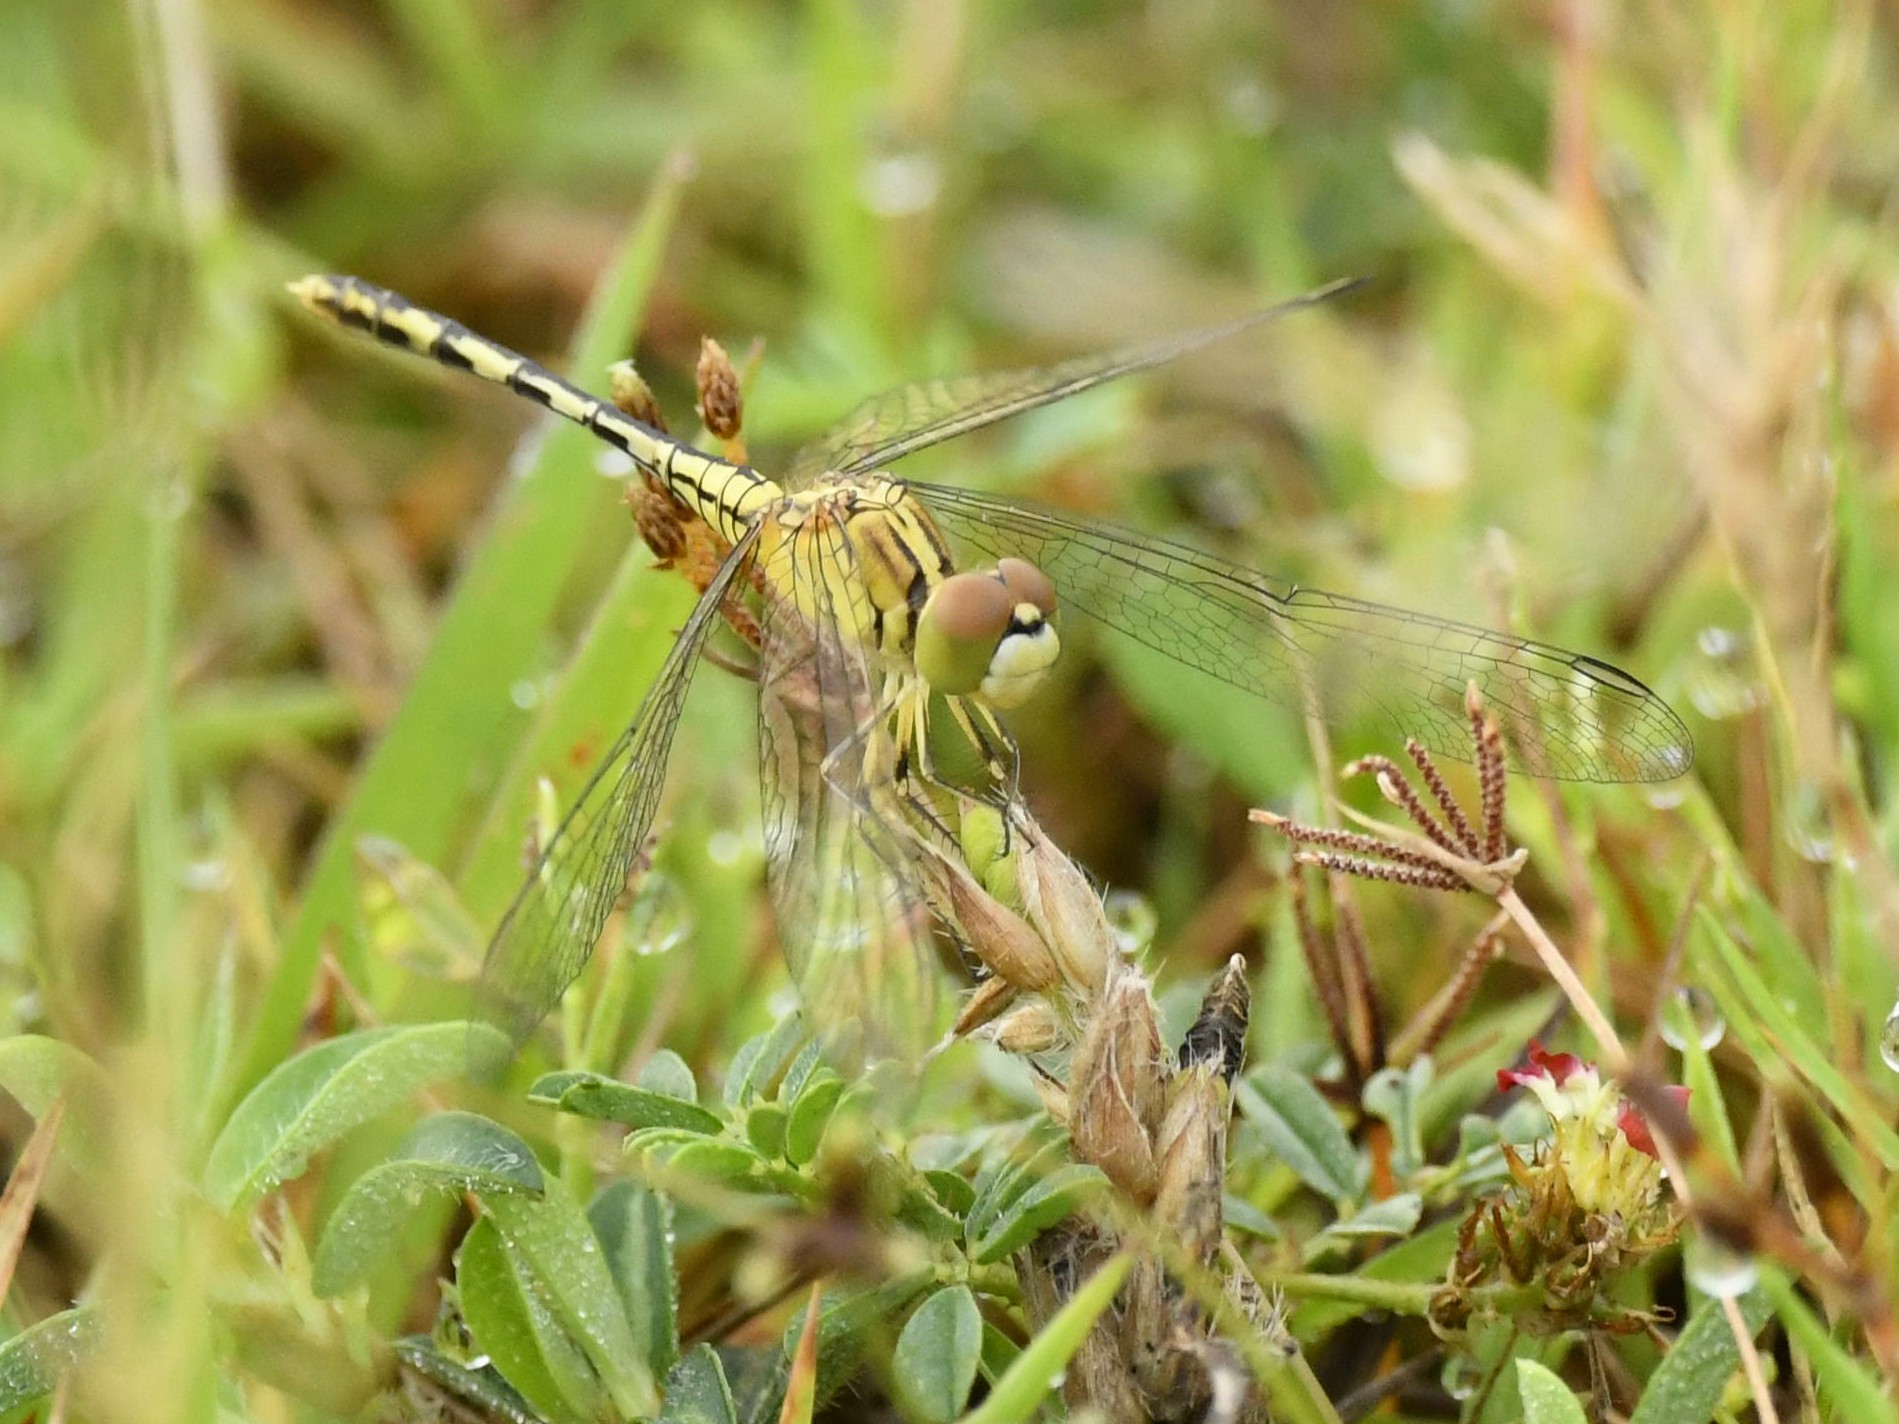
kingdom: Animalia
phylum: Arthropoda
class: Insecta
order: Odonata
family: Libellulidae
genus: Diplacodes
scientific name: Diplacodes trivialis
